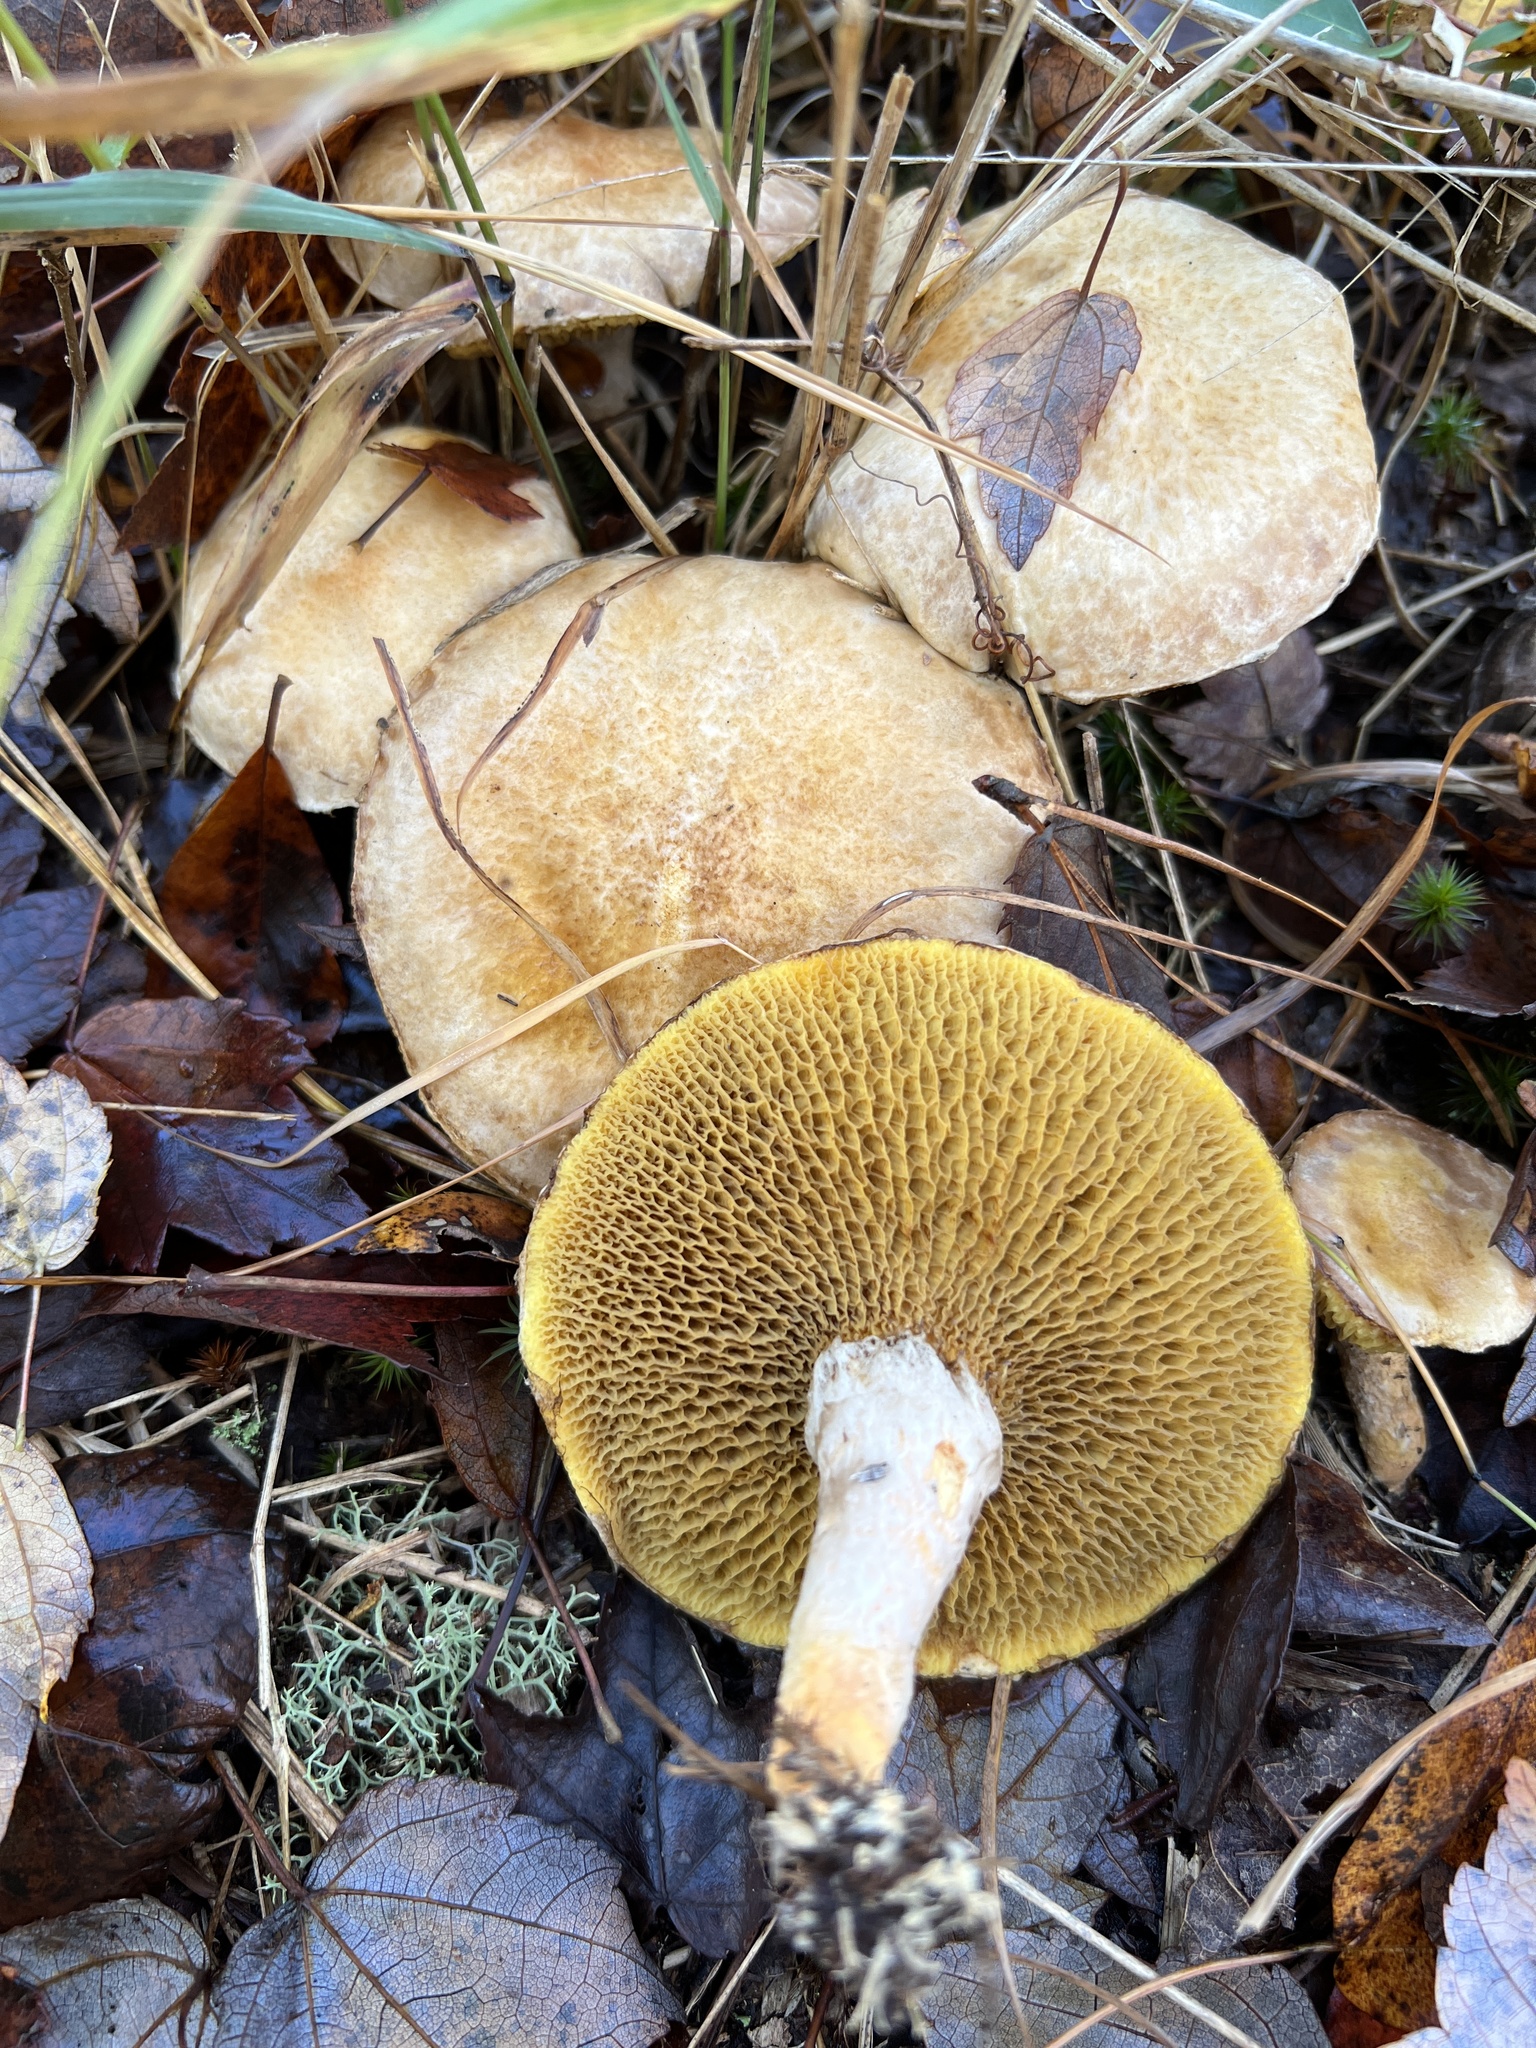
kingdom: Fungi
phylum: Basidiomycota
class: Agaricomycetes
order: Boletales
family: Suillaceae
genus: Suillus
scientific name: Suillus decipiens
